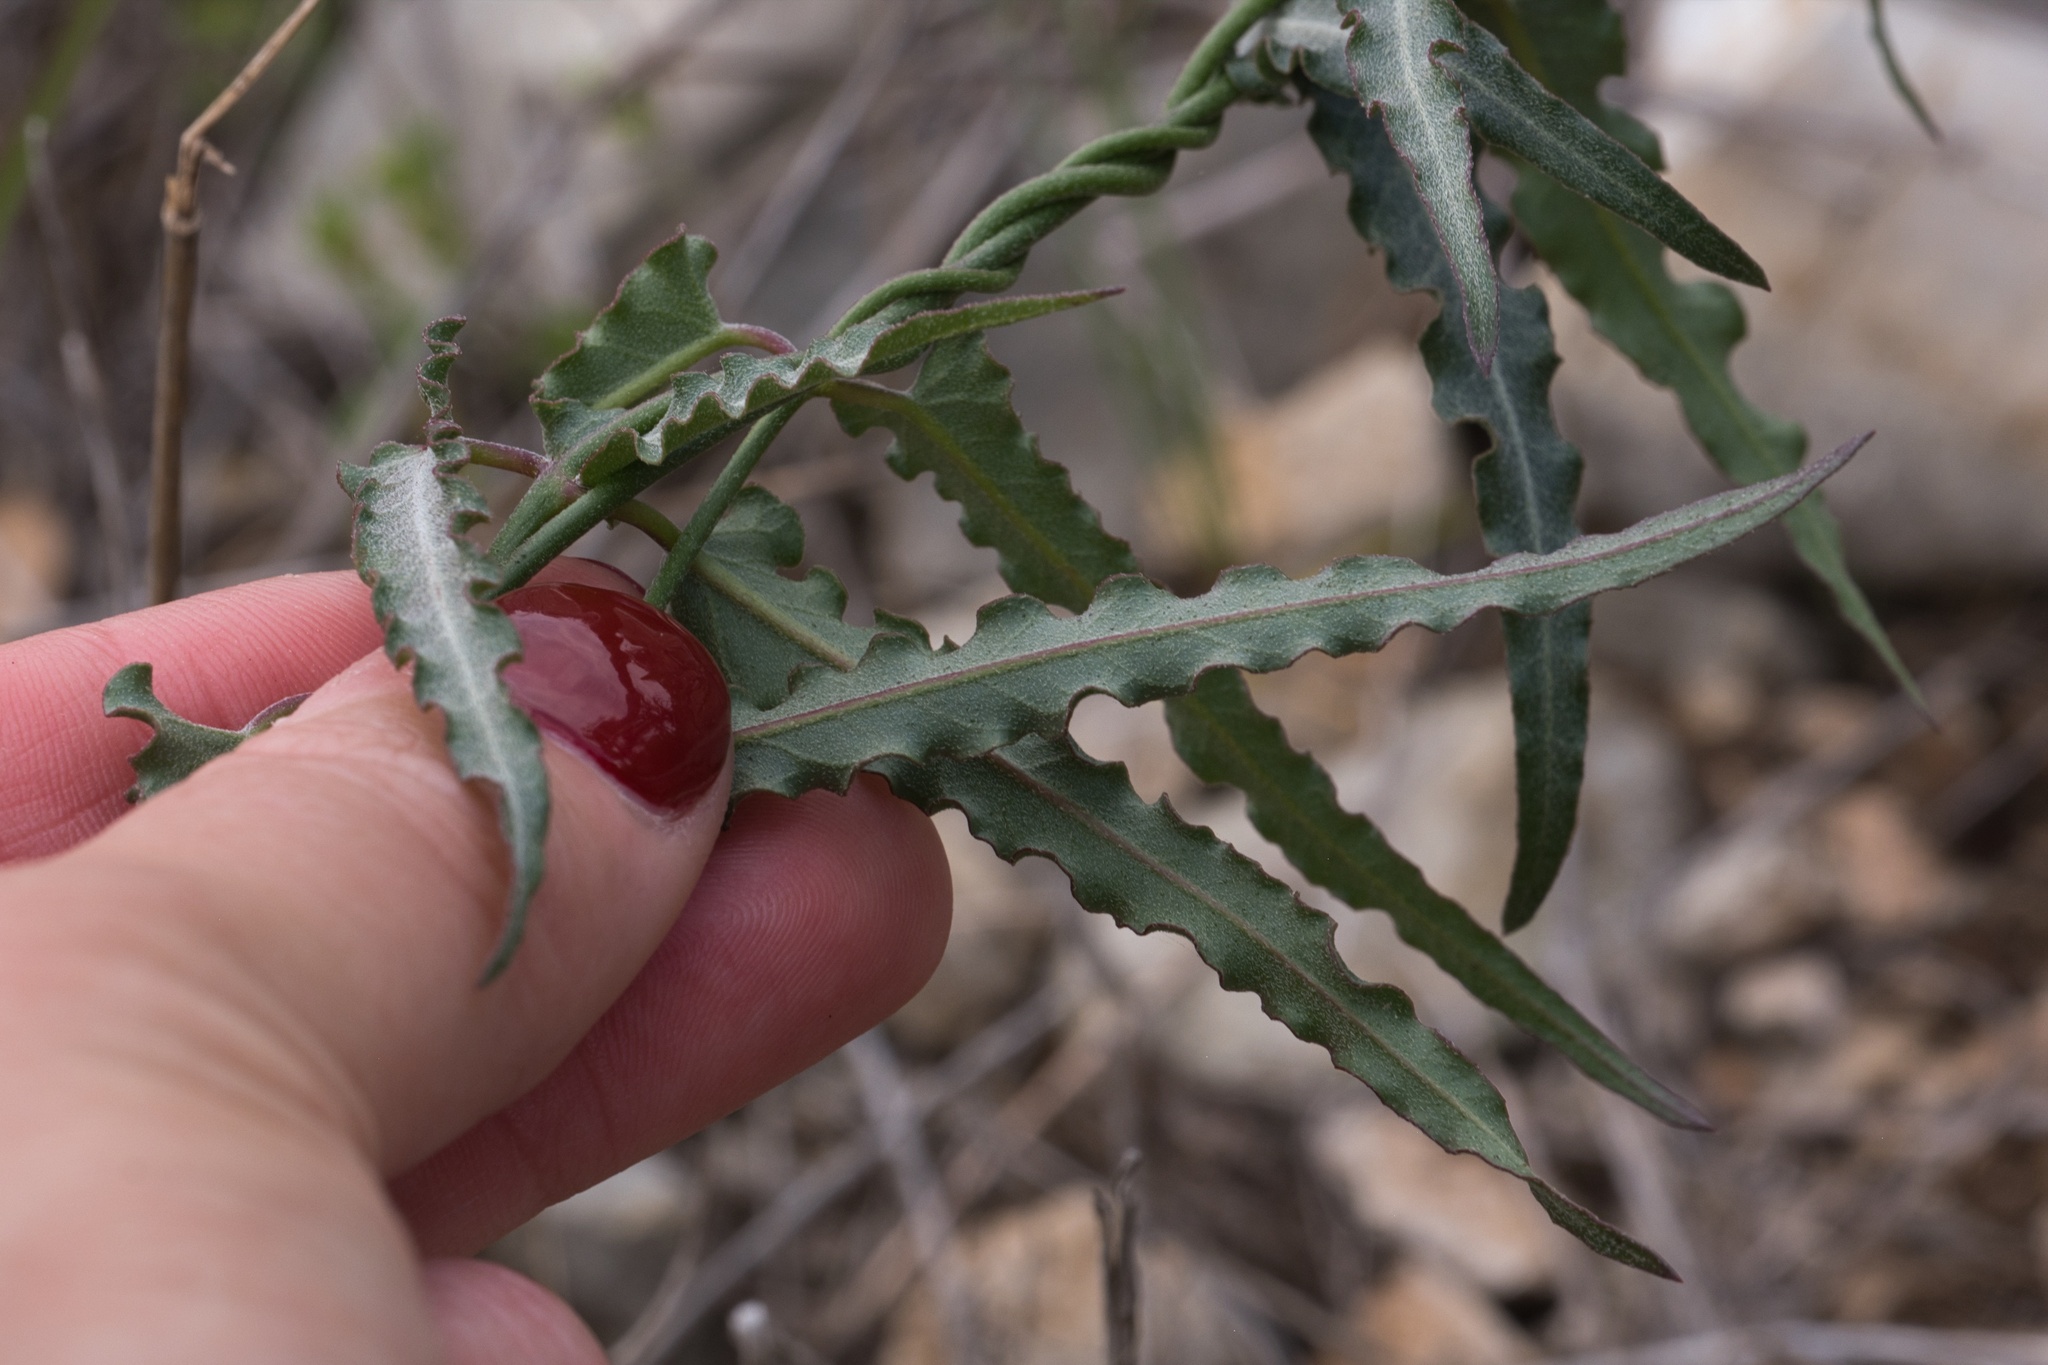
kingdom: Plantae
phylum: Tracheophyta
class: Magnoliopsida
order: Gentianales
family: Apocynaceae
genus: Funastrum
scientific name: Funastrum crispum
